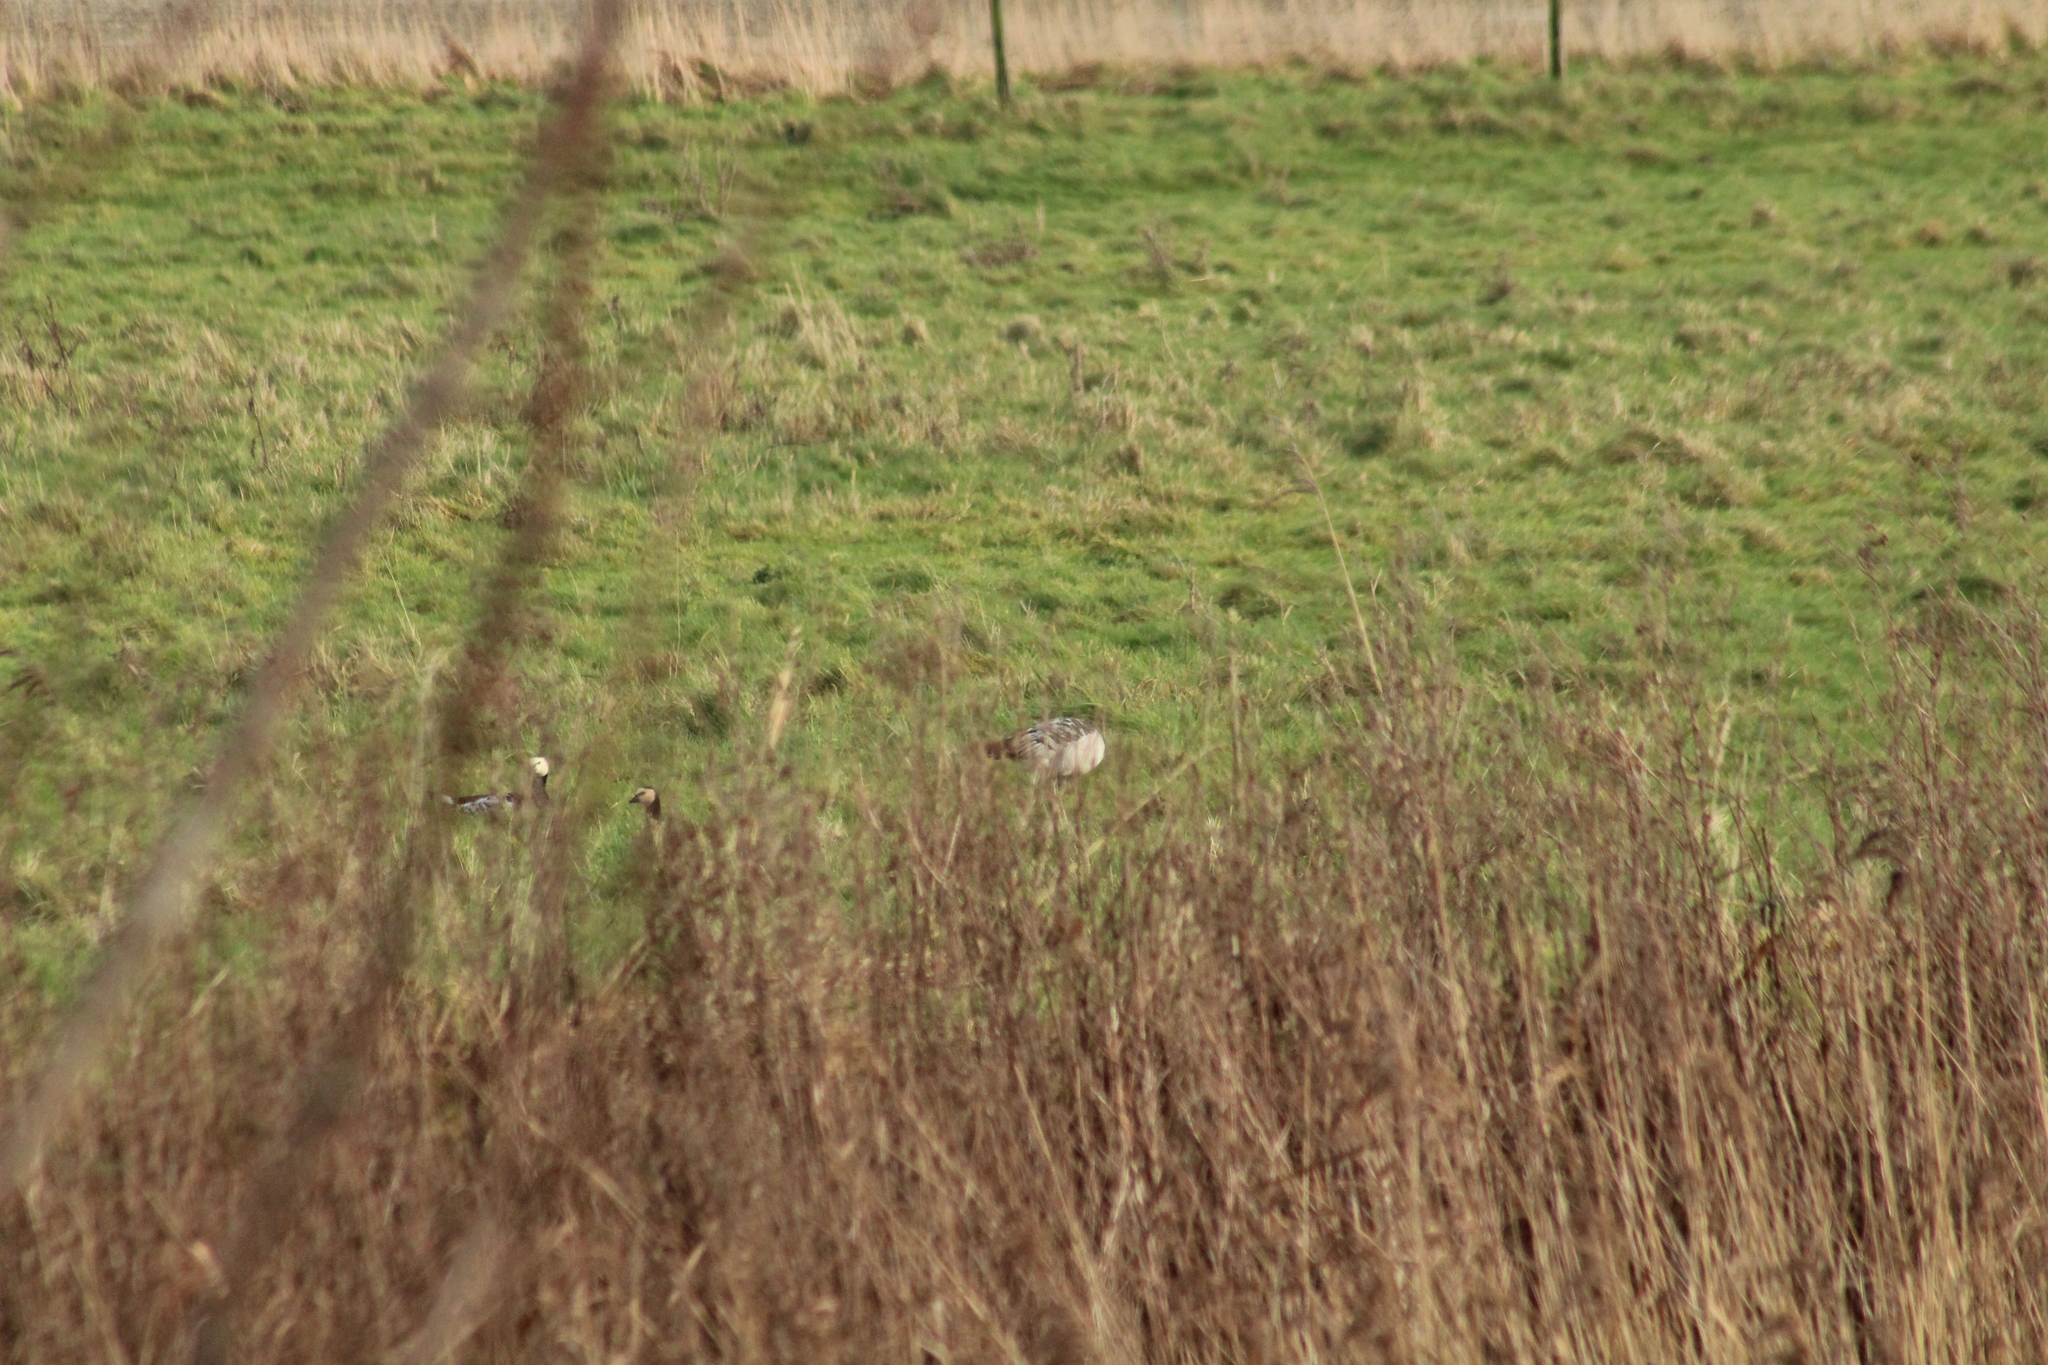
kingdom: Animalia
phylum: Chordata
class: Aves
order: Anseriformes
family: Anatidae
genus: Branta
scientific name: Branta leucopsis
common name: Barnacle goose
